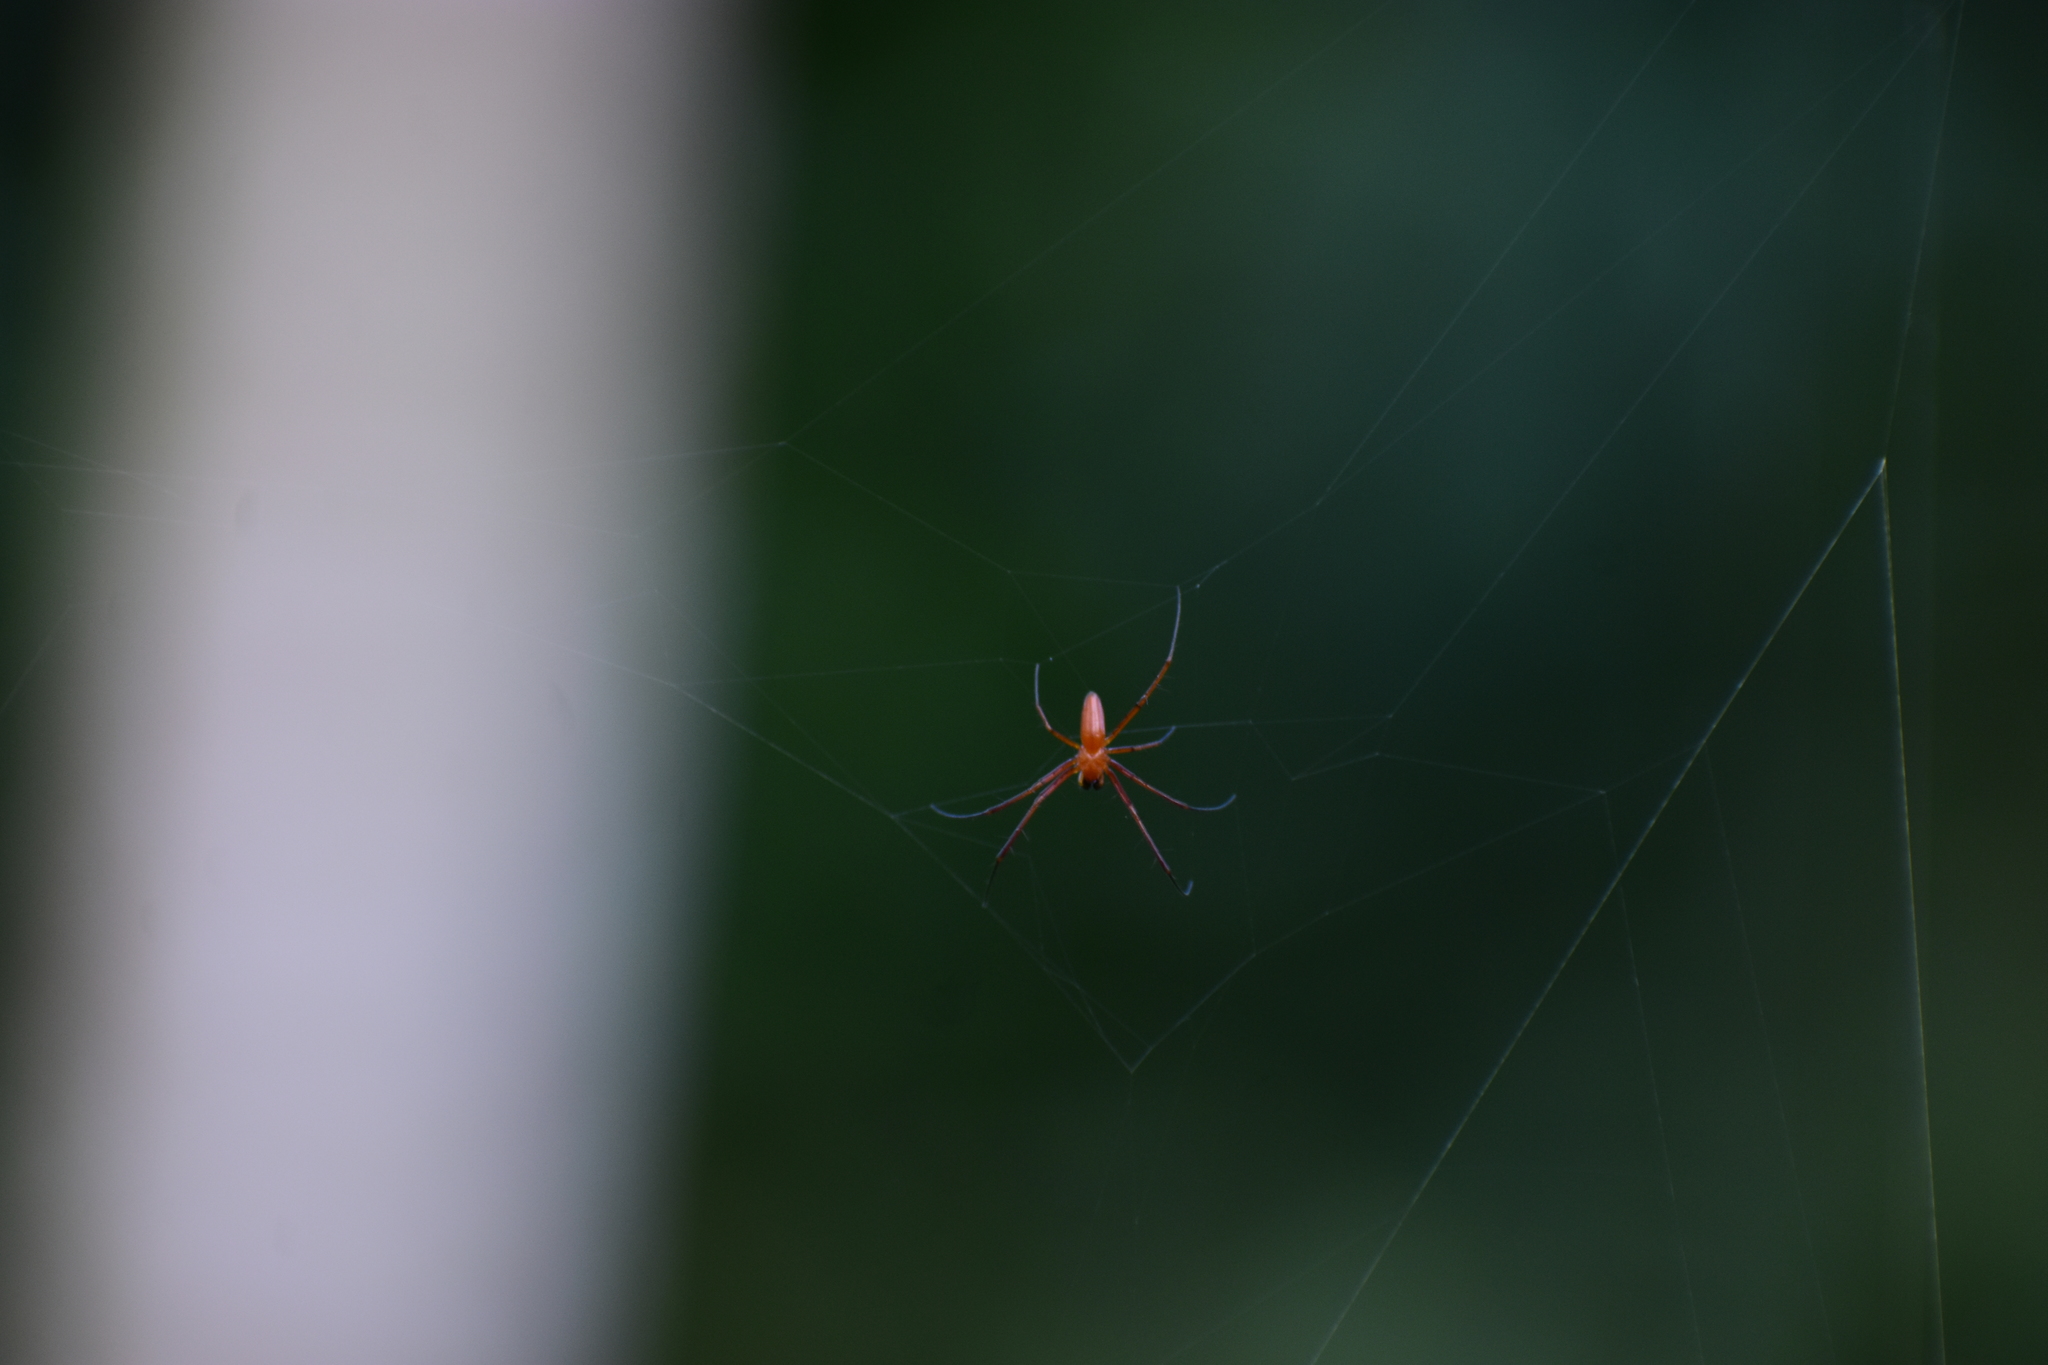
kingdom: Animalia
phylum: Arthropoda
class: Arachnida
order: Araneae
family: Araneidae
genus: Nephila
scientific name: Nephila pilipes
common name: Giant golden orb weaver
